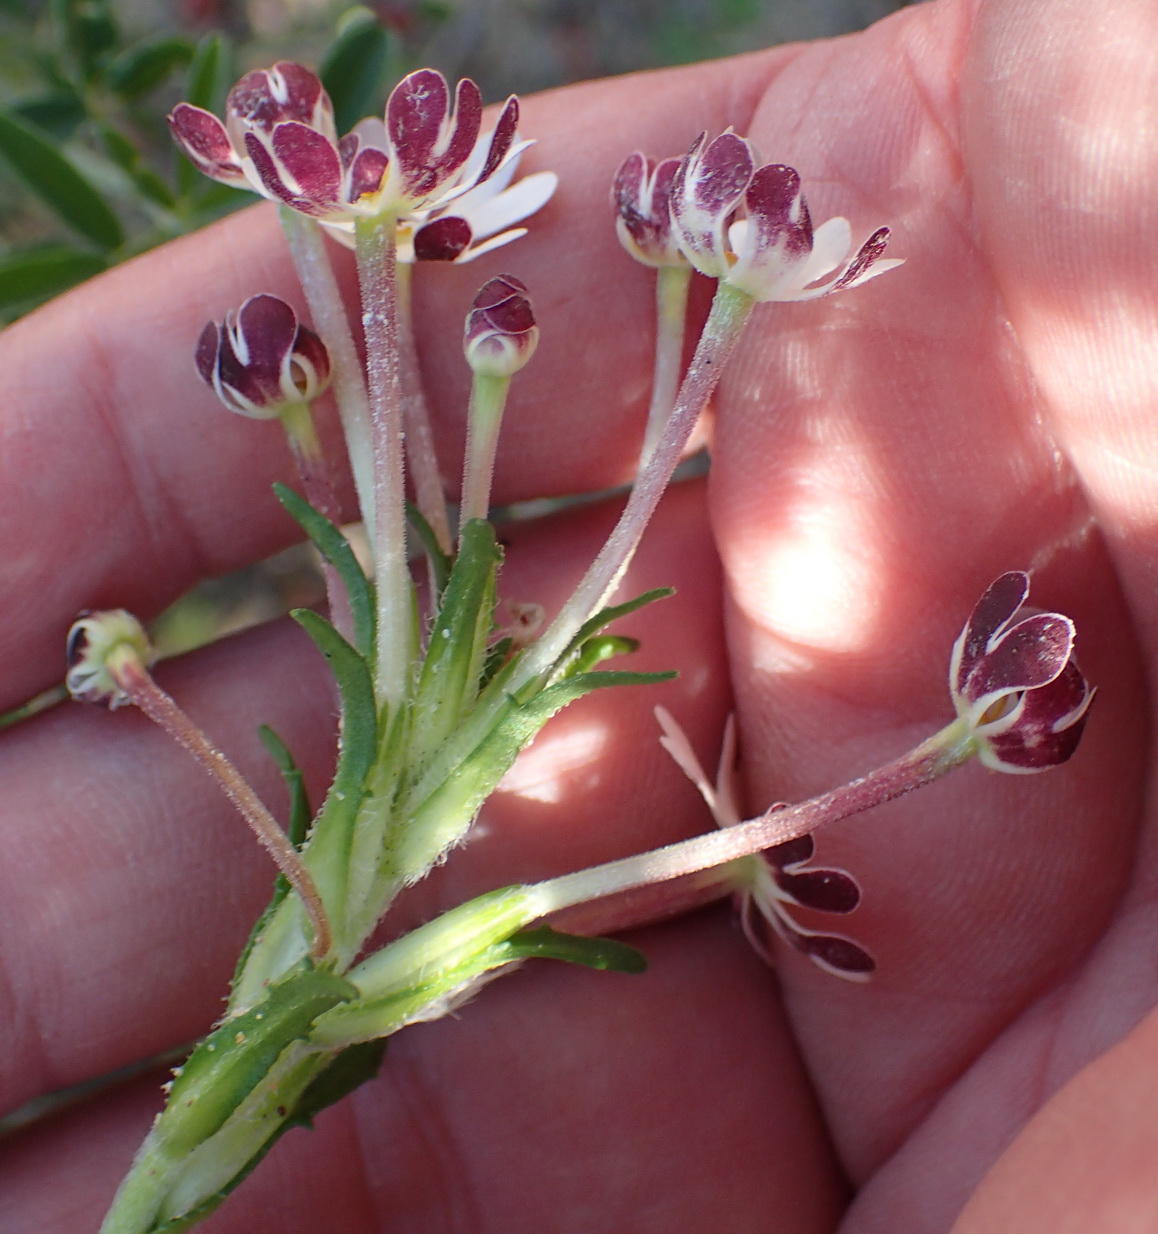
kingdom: Plantae
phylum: Tracheophyta
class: Magnoliopsida
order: Lamiales
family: Scrophulariaceae
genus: Zaluzianskya
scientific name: Zaluzianskya capensis
